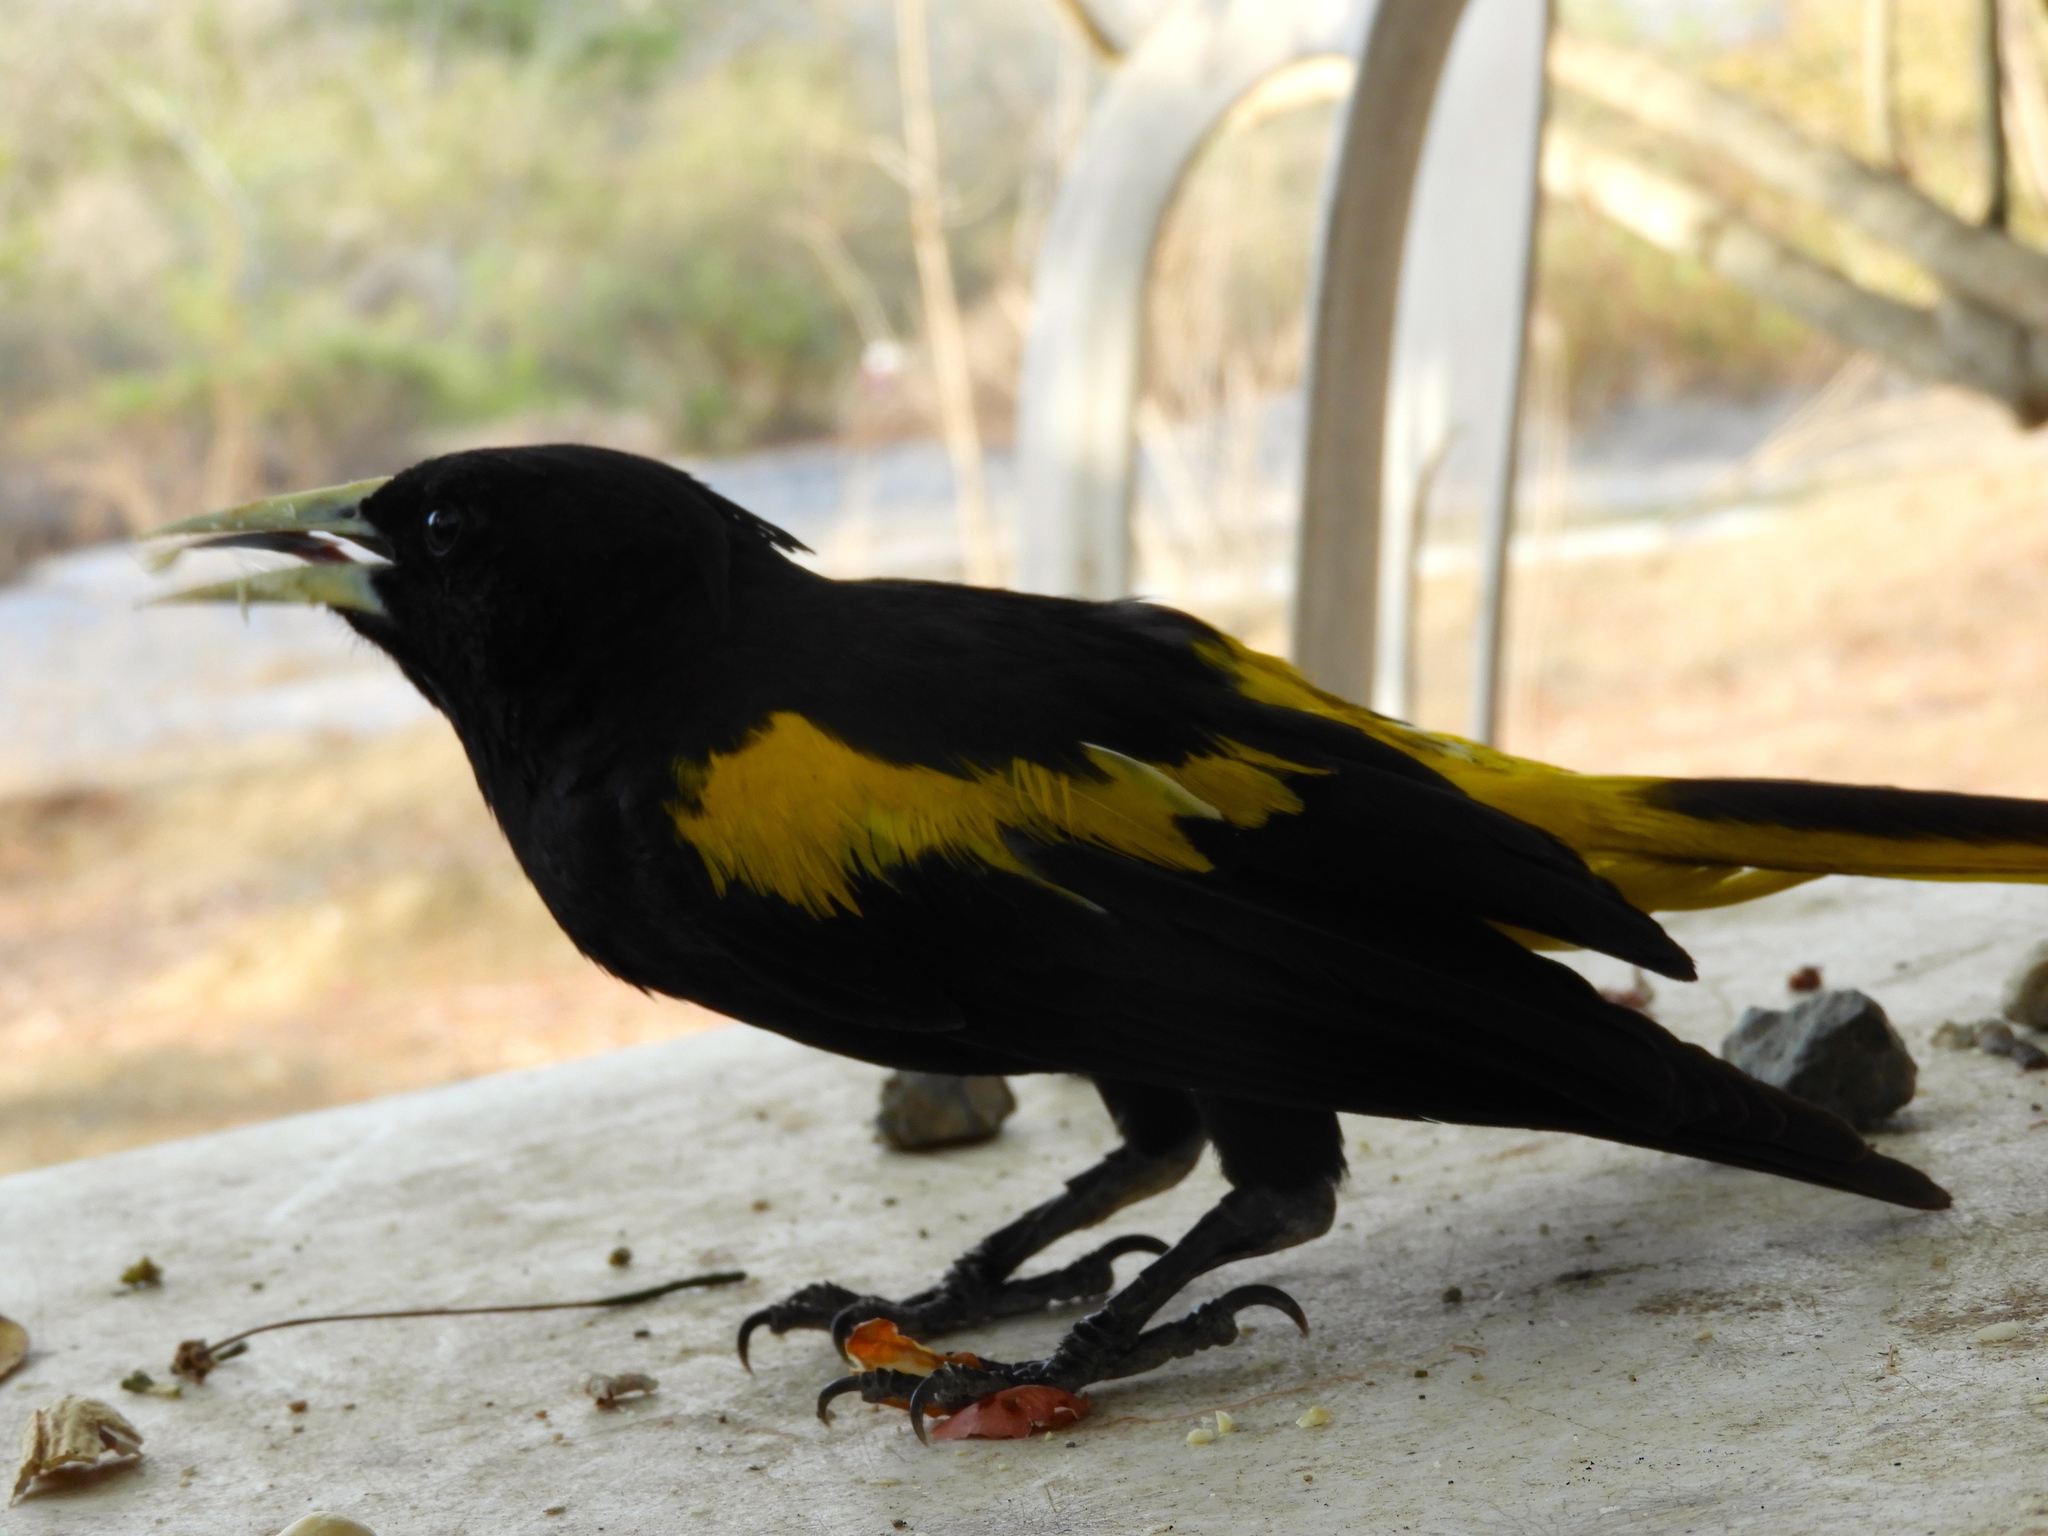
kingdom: Animalia
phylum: Chordata
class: Aves
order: Passeriformes
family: Icteridae
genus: Cacicus
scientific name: Cacicus melanicterus
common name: Yellow-winged cacique
